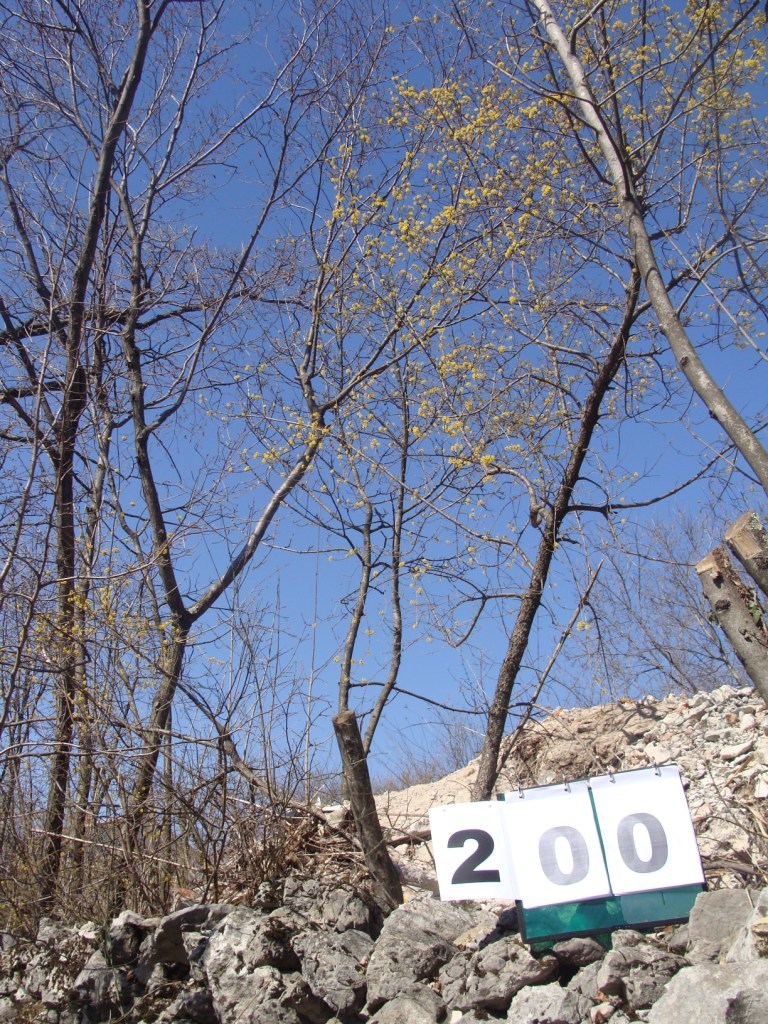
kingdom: Plantae
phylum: Tracheophyta
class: Magnoliopsida
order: Cornales
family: Cornaceae
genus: Cornus
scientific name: Cornus mas
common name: Cornelian-cherry
